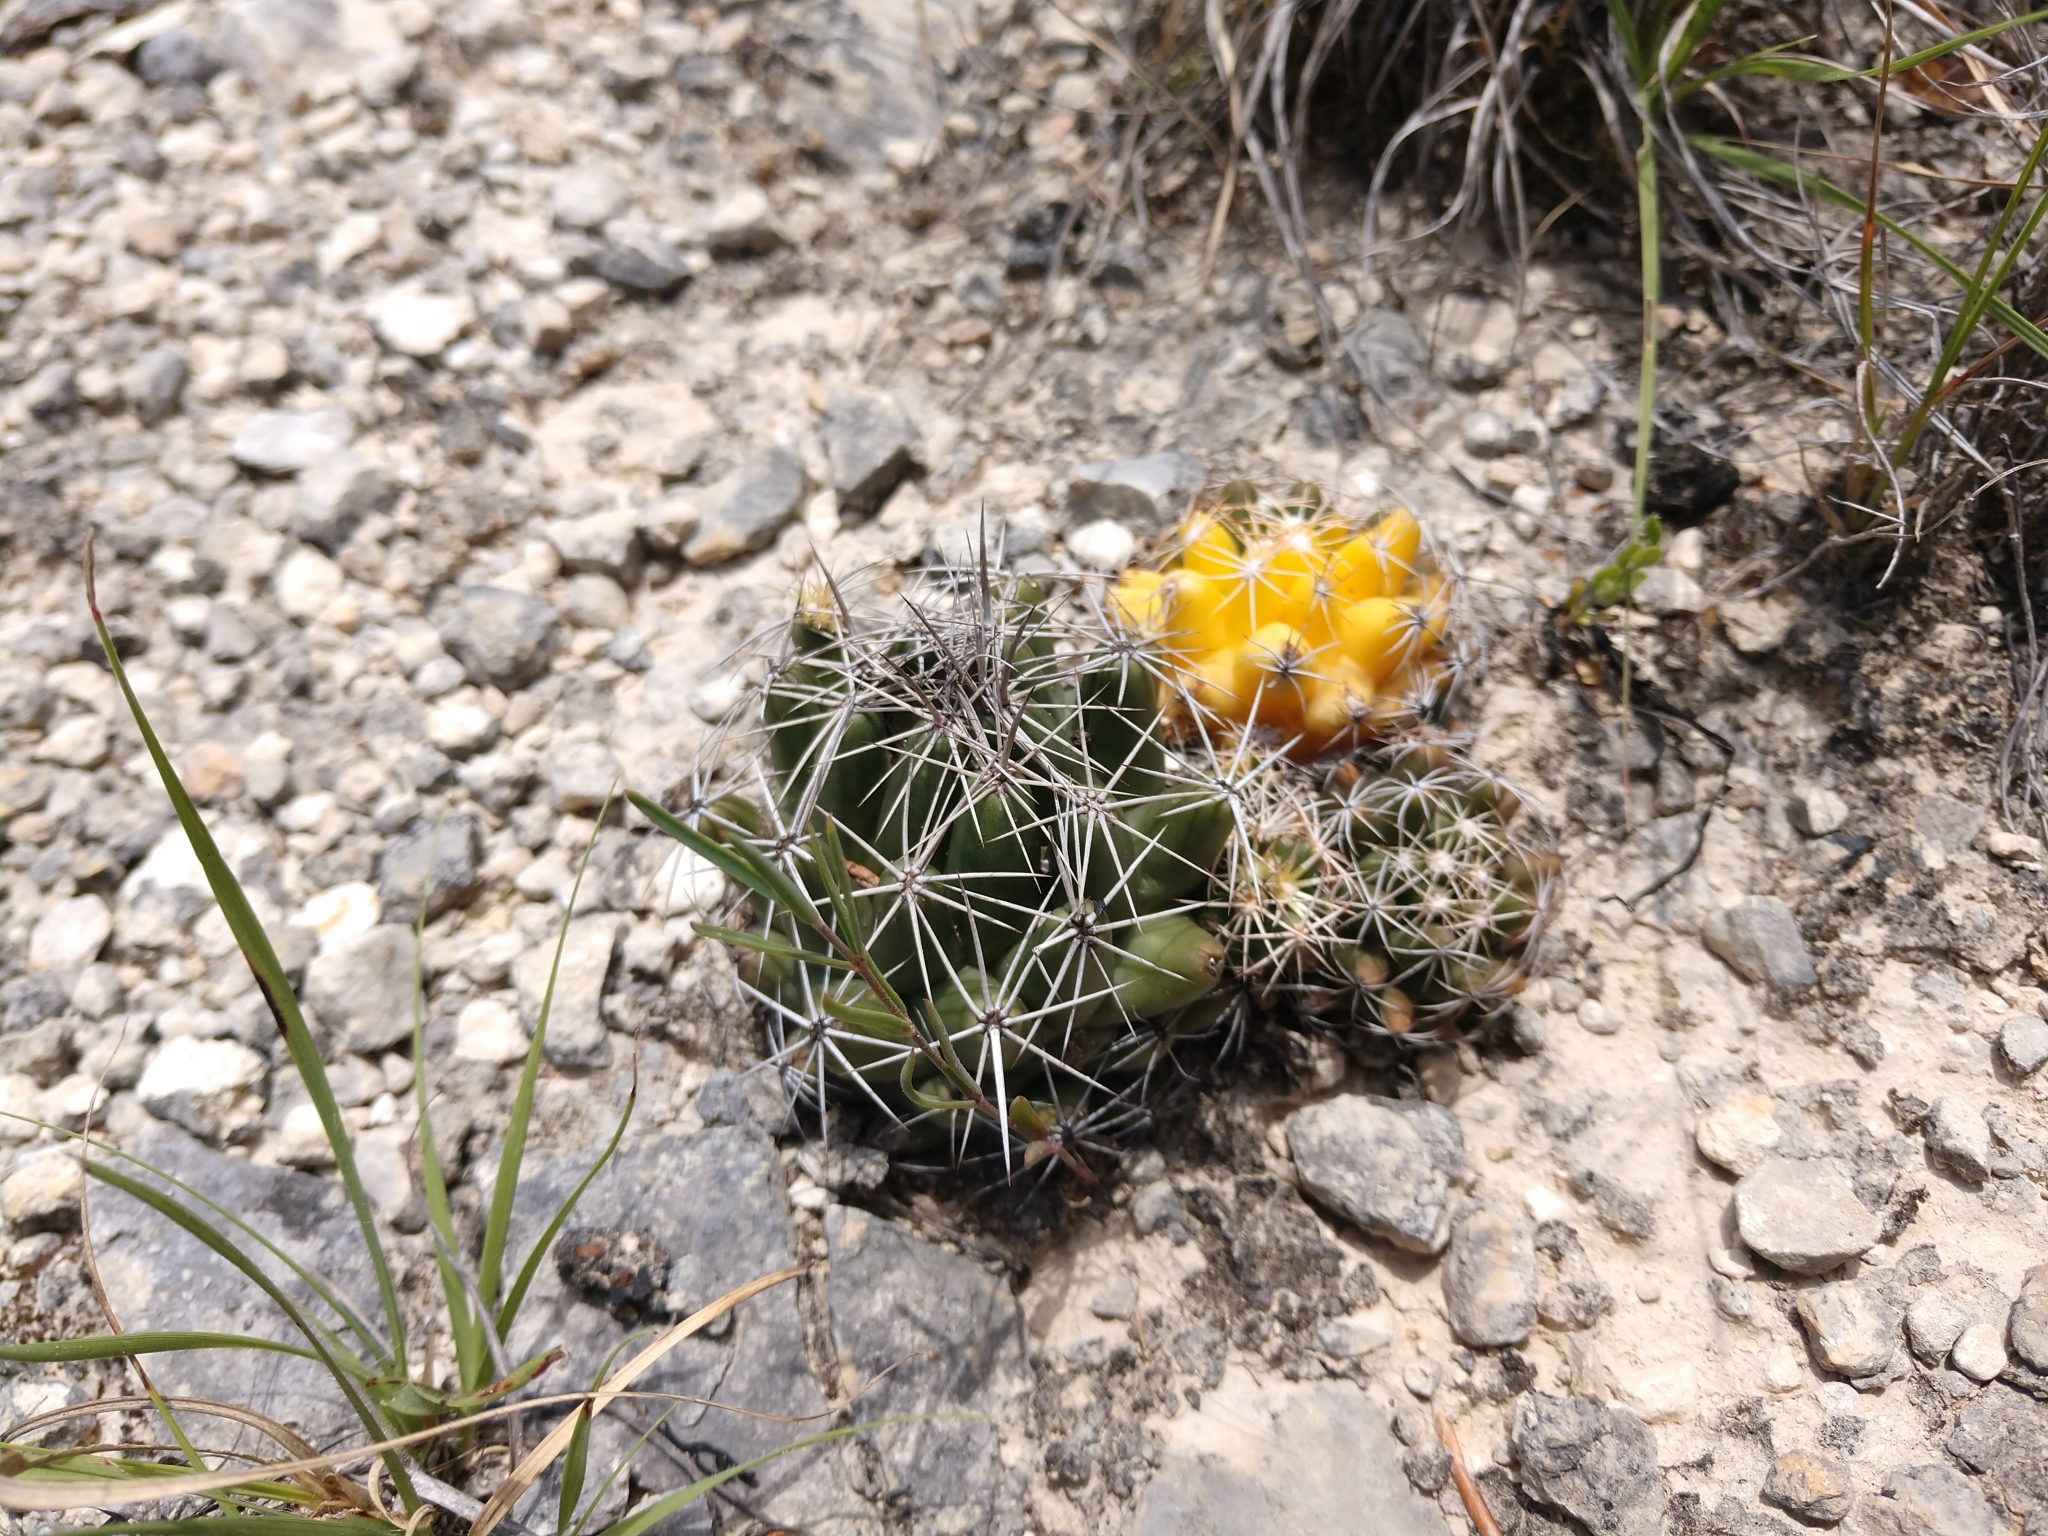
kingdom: Plantae
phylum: Tracheophyta
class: Magnoliopsida
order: Caryophyllales
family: Cactaceae
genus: Coryphantha
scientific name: Coryphantha sulcata
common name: Finger cactus
